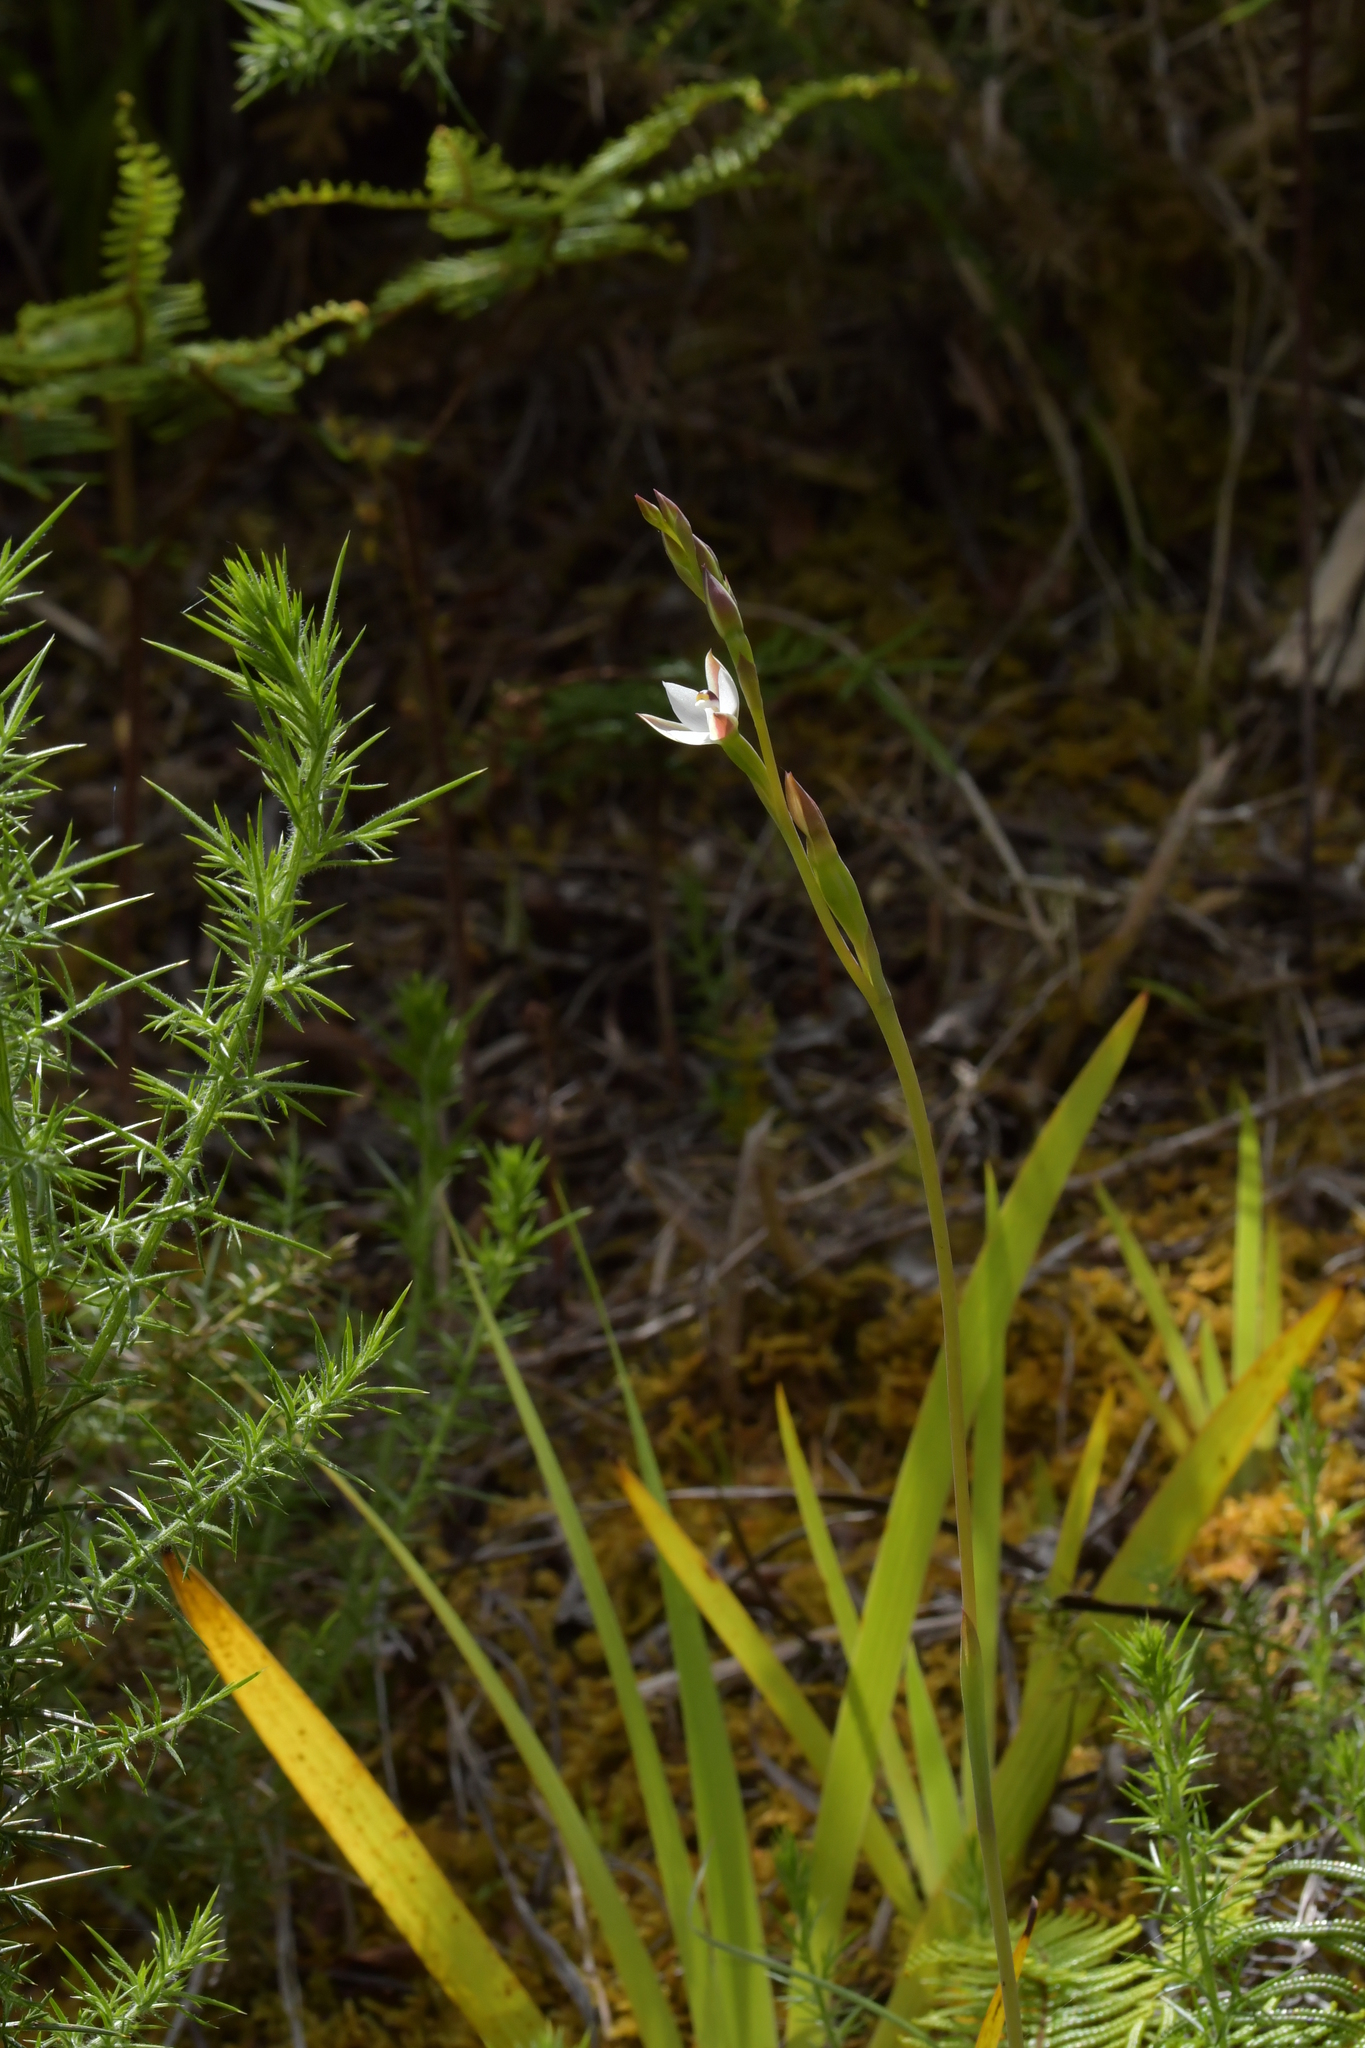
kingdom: Plantae
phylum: Tracheophyta
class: Liliopsida
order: Asparagales
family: Orchidaceae
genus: Thelymitra
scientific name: Thelymitra longifolia
